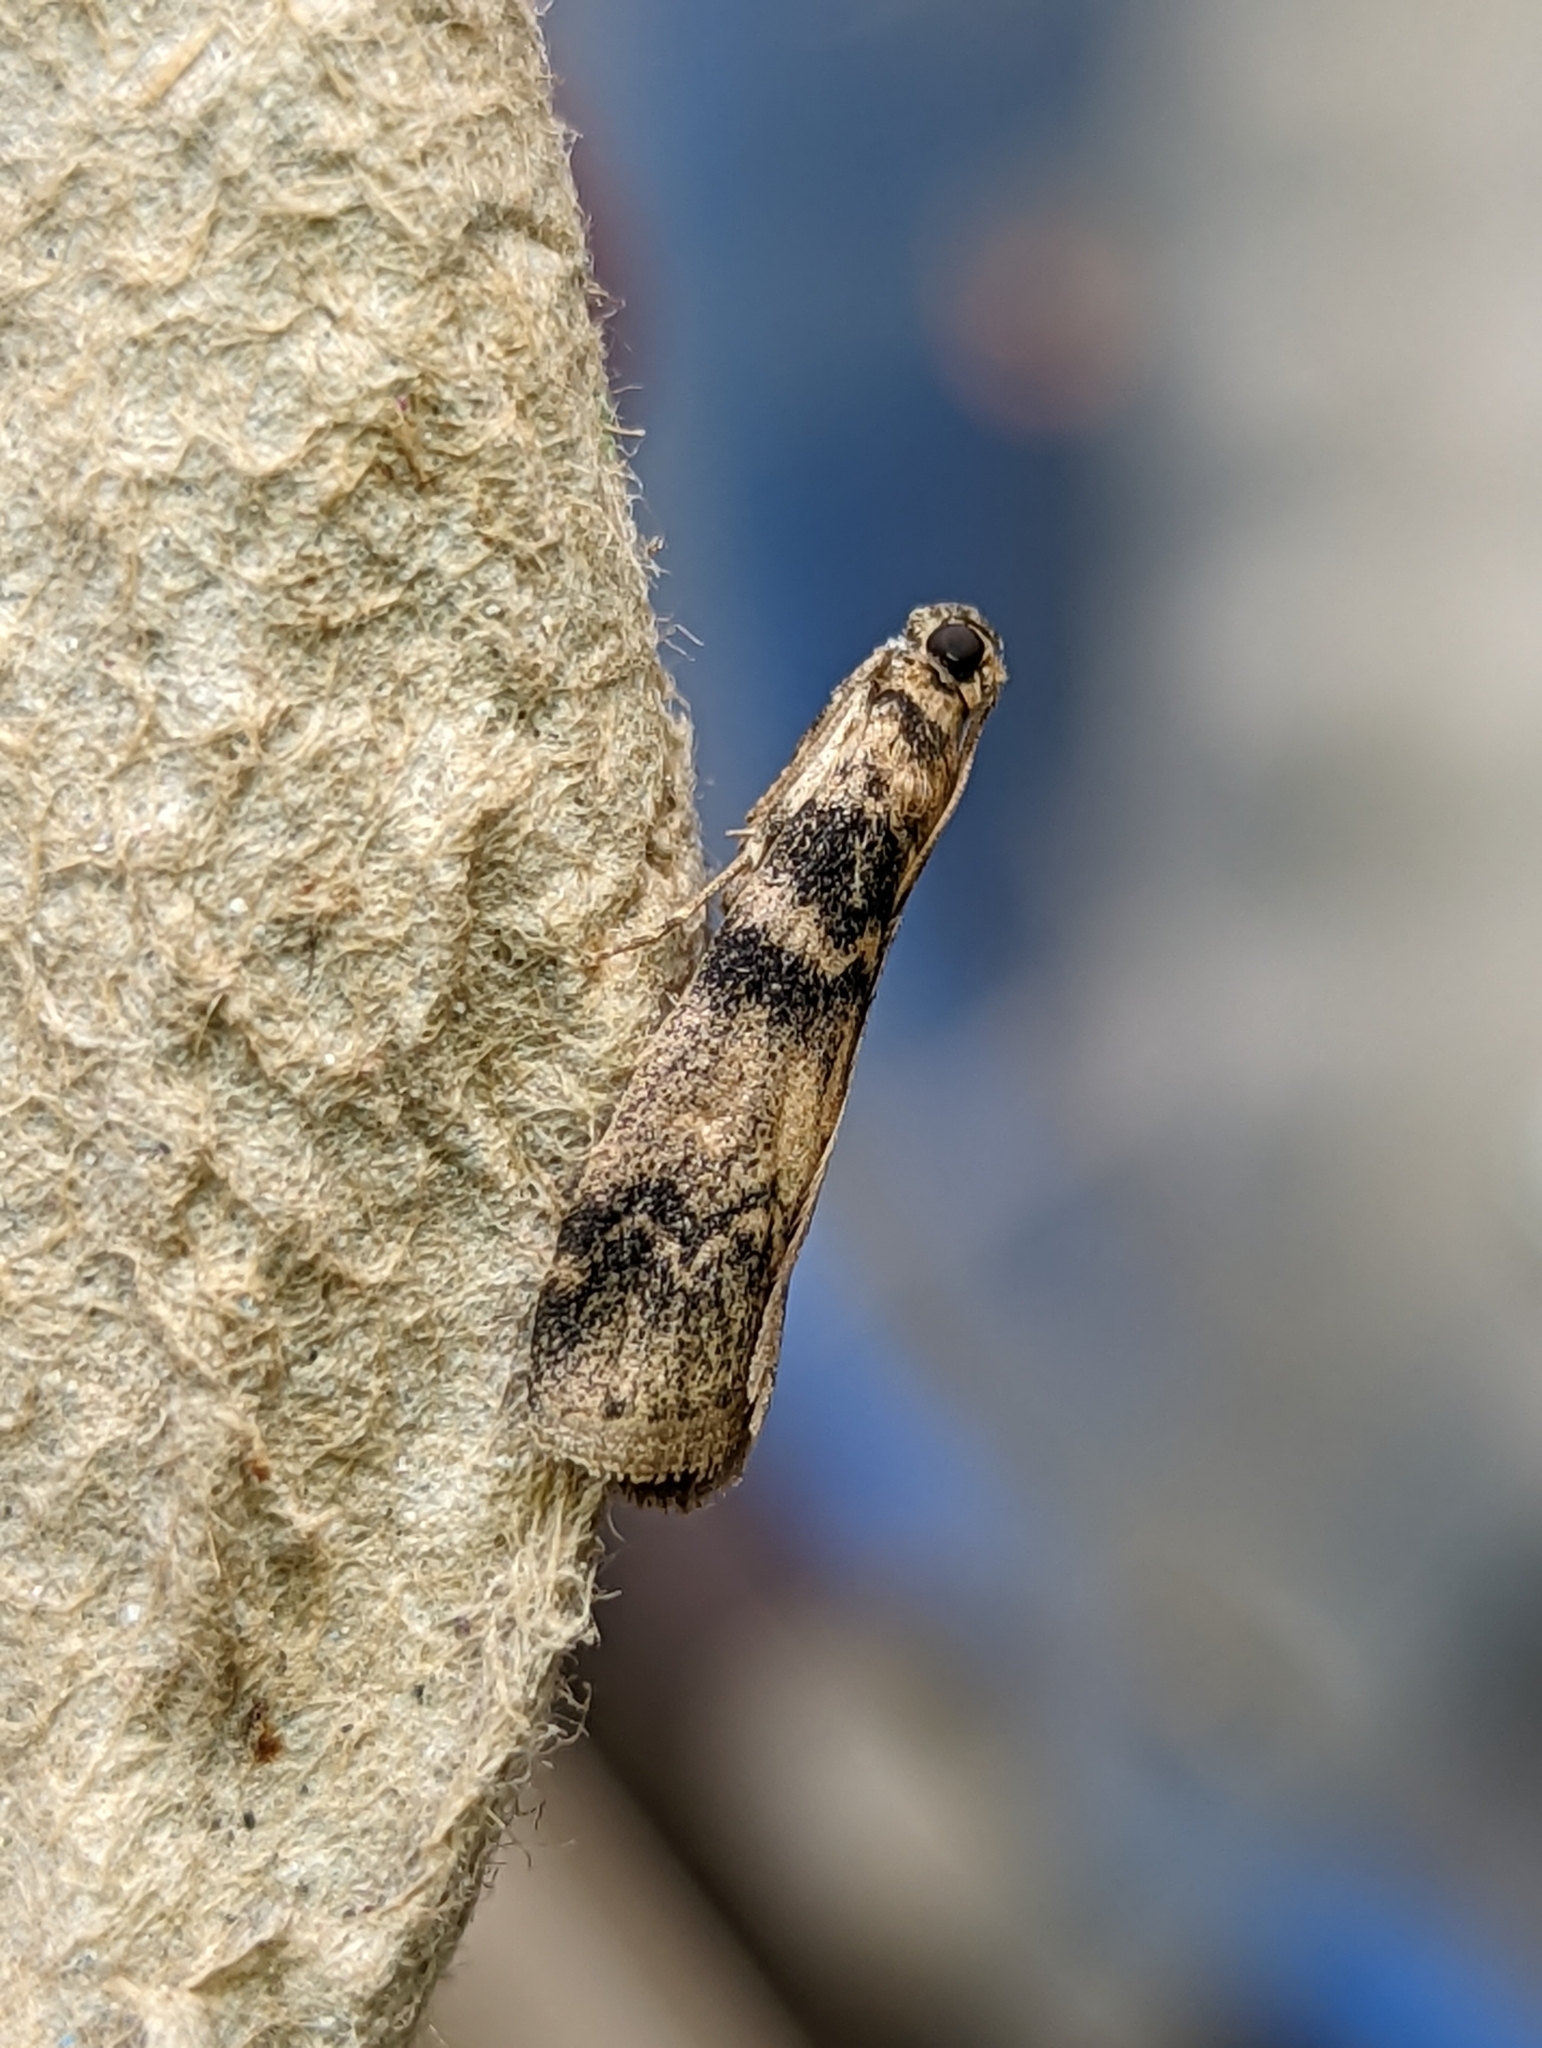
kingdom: Animalia
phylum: Arthropoda
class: Insecta
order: Lepidoptera
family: Pyralidae
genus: Euzophera
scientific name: Euzophera pinguis
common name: Ash-bark knot-horn
